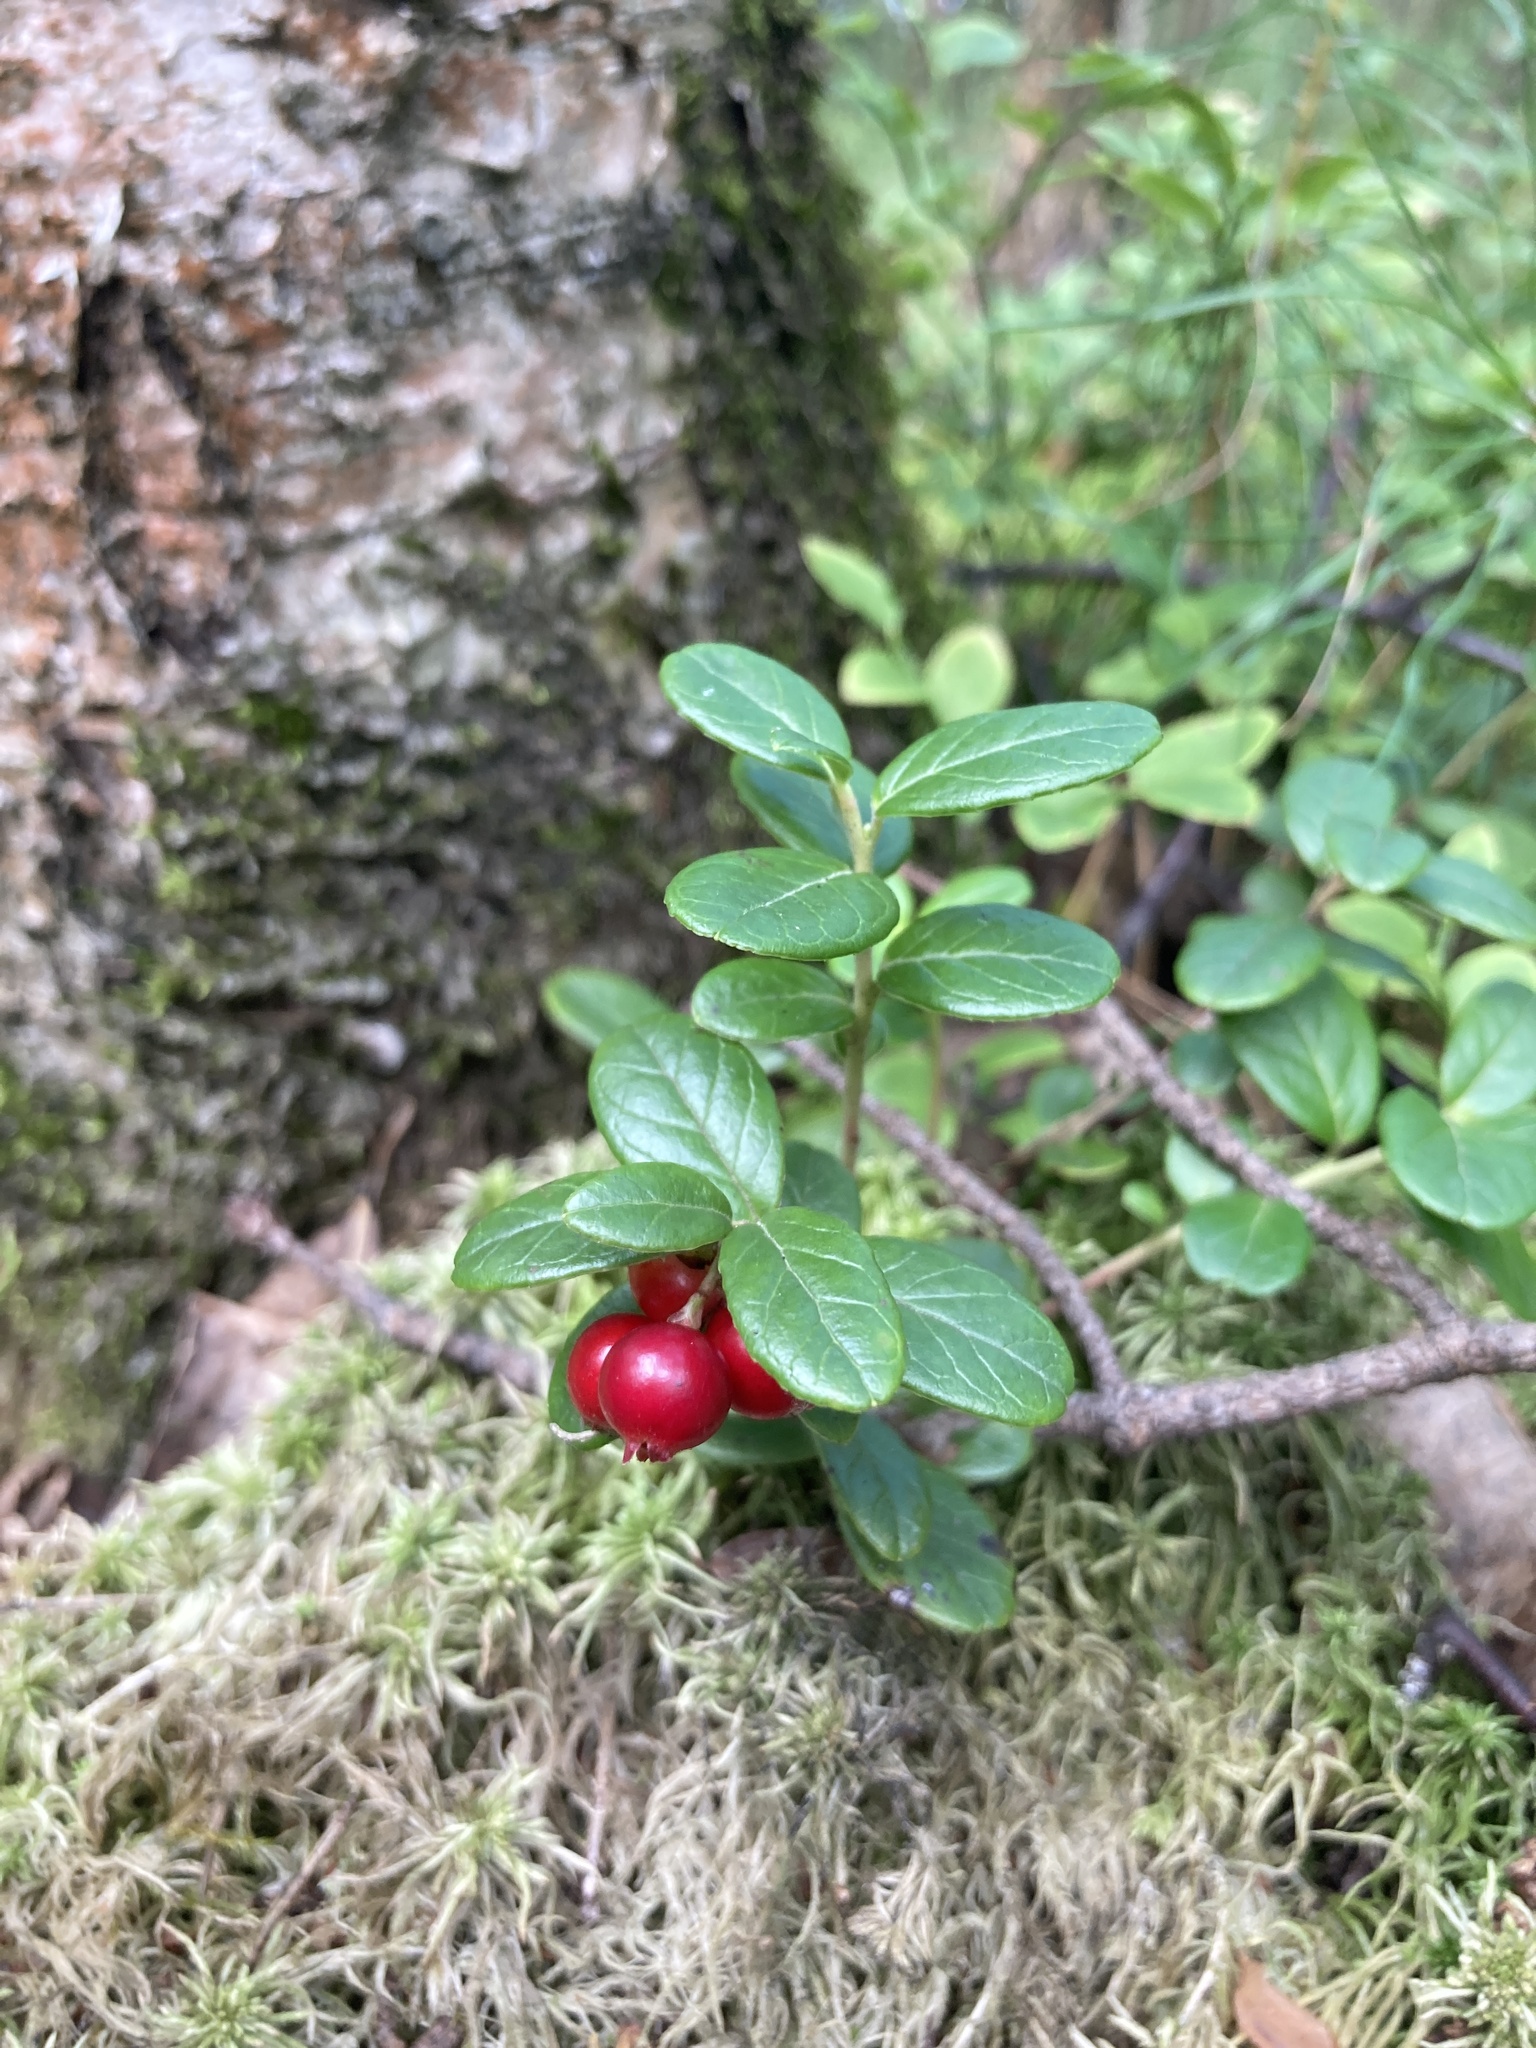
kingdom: Plantae
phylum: Tracheophyta
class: Magnoliopsida
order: Ericales
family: Ericaceae
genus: Vaccinium
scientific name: Vaccinium vitis-idaea
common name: Cowberry
